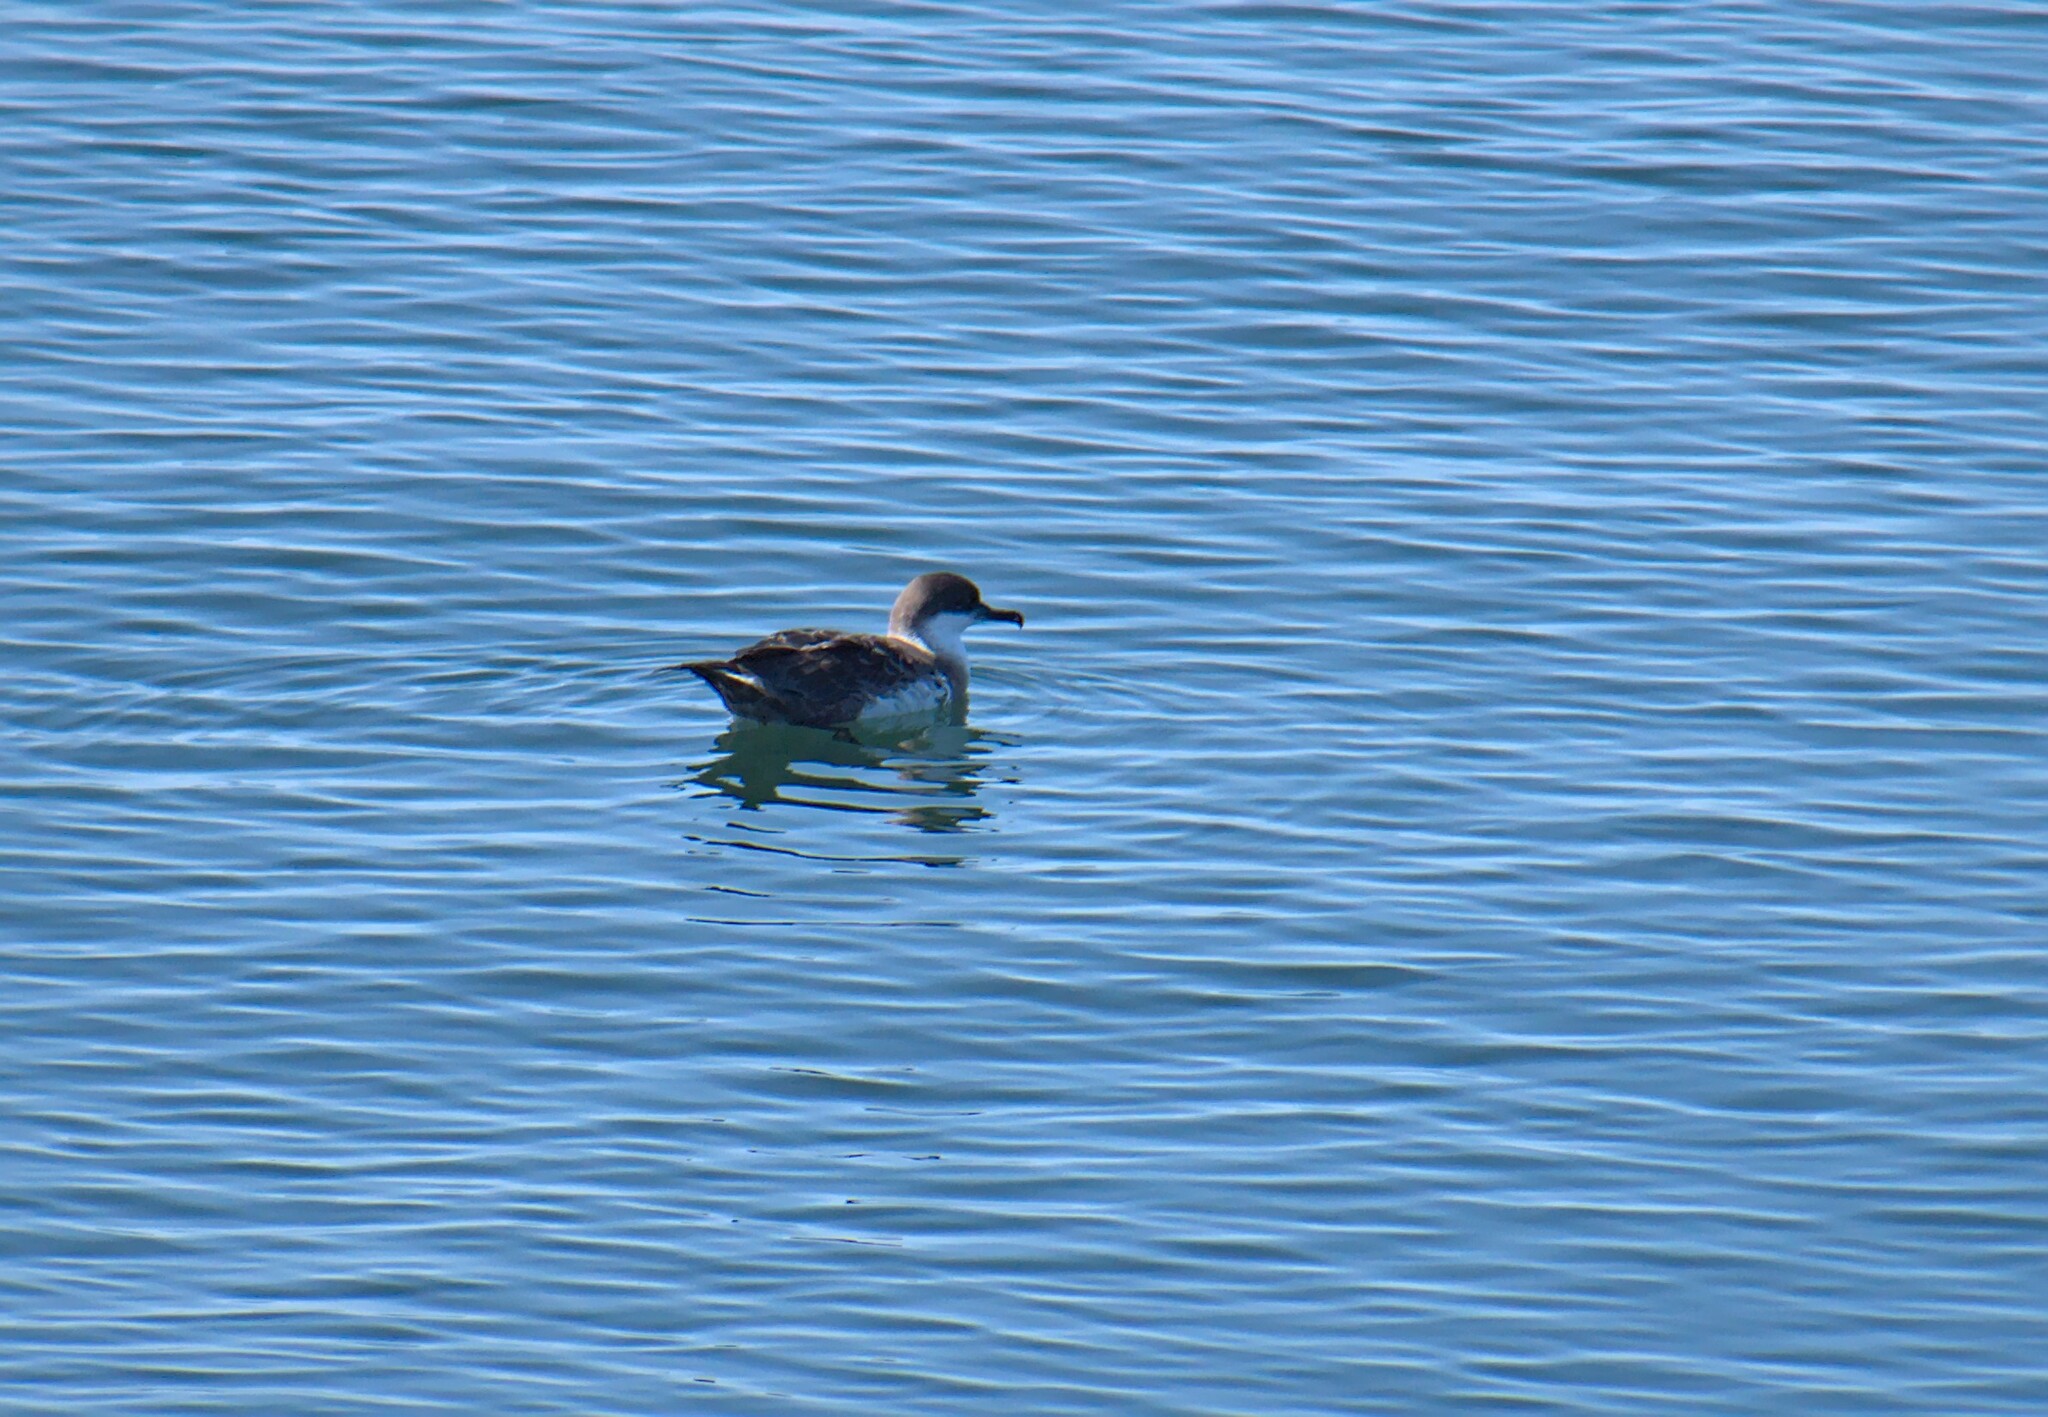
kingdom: Animalia
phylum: Chordata
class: Aves
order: Procellariiformes
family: Procellariidae
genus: Puffinus
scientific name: Puffinus gravis
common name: Great shearwater
